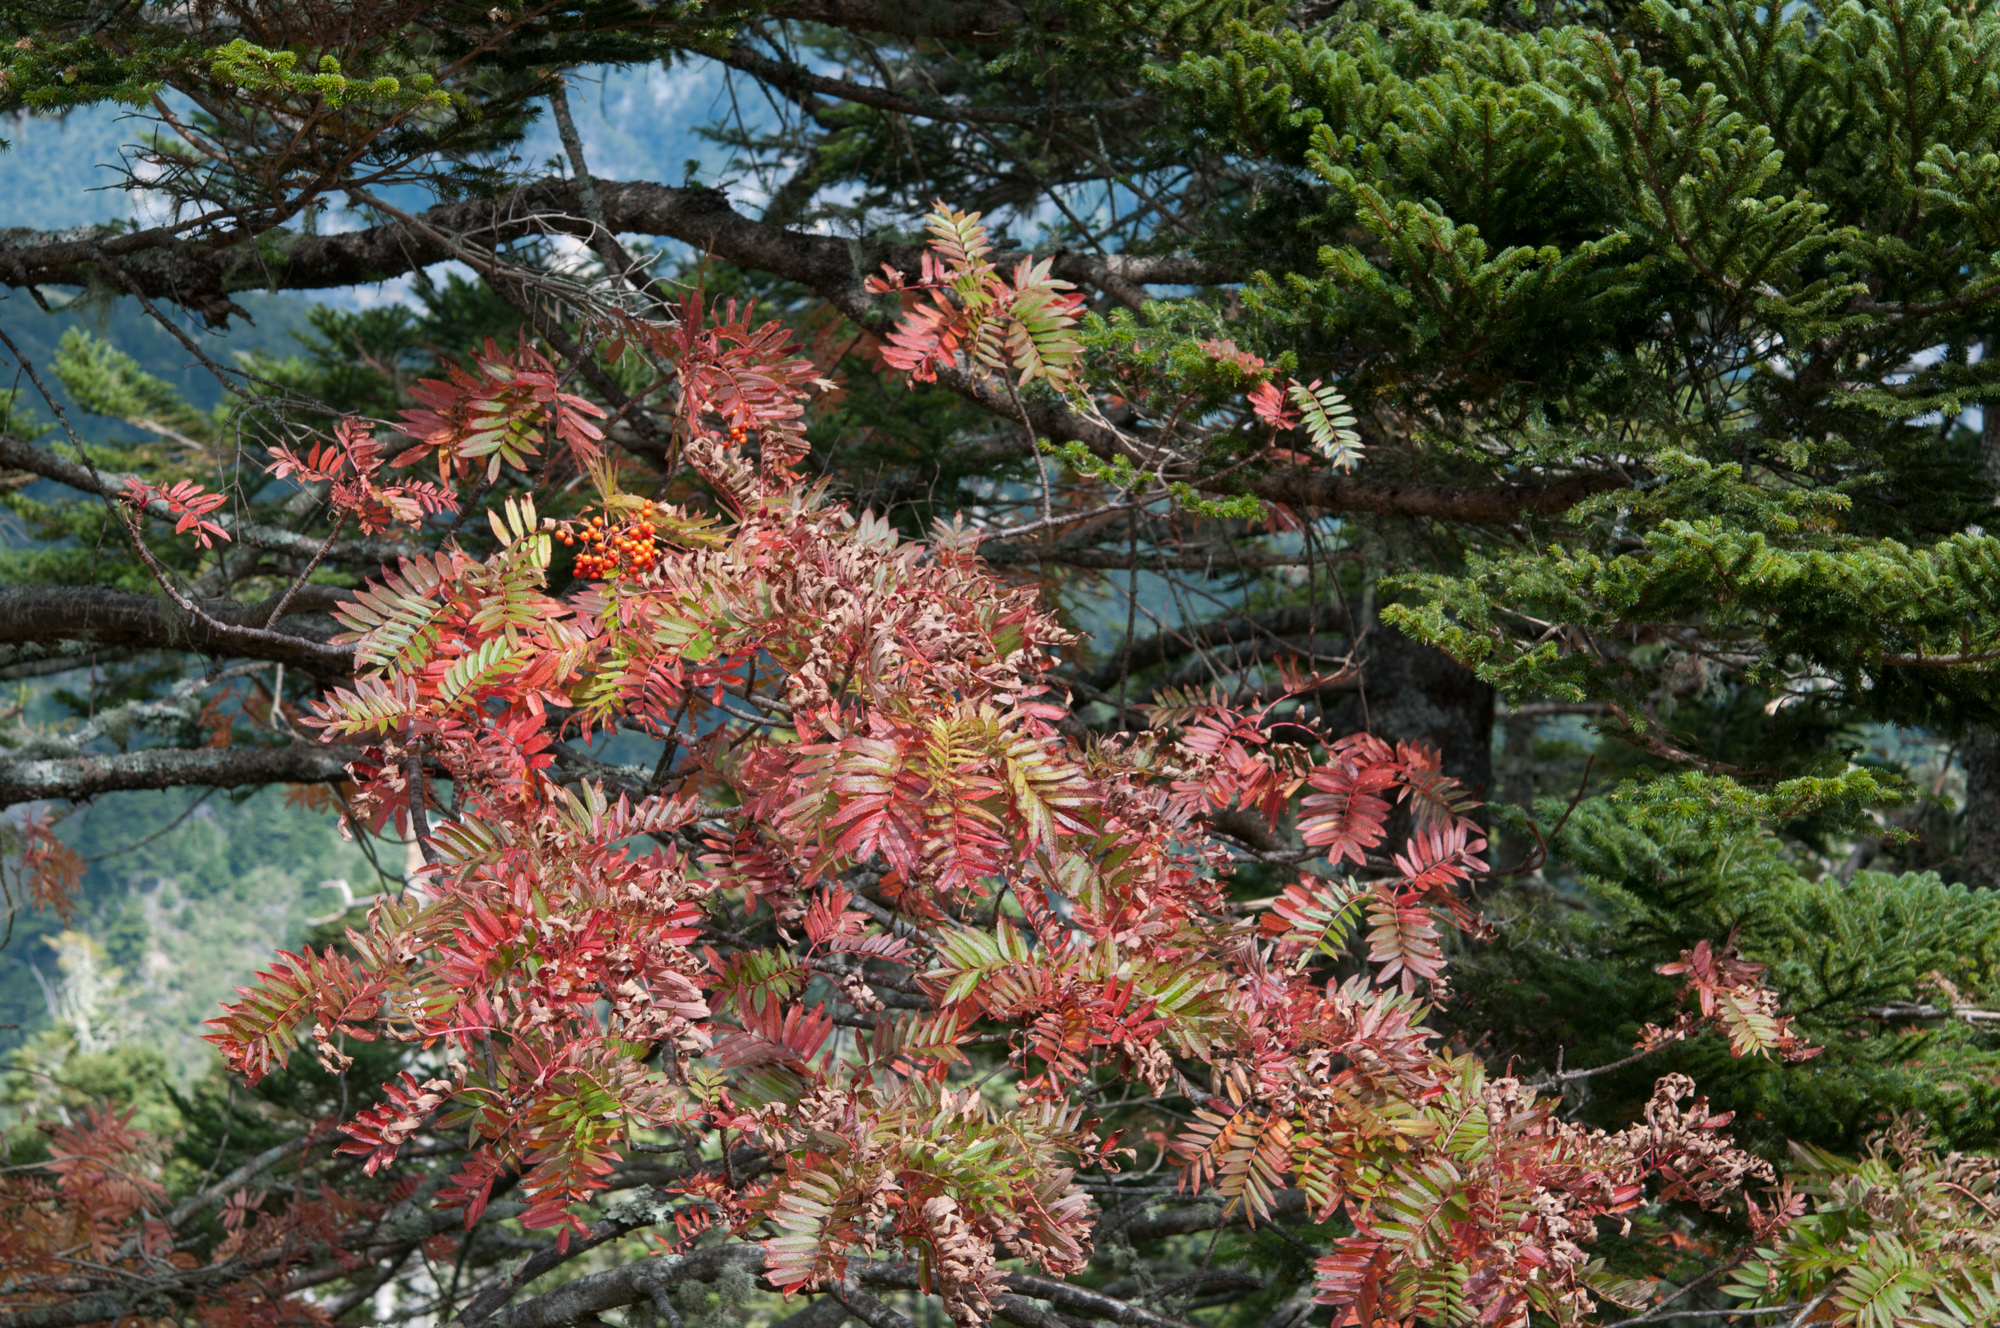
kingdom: Plantae
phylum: Tracheophyta
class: Magnoliopsida
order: Rosales
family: Rosaceae
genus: Sorbus
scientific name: Sorbus randaiensis
